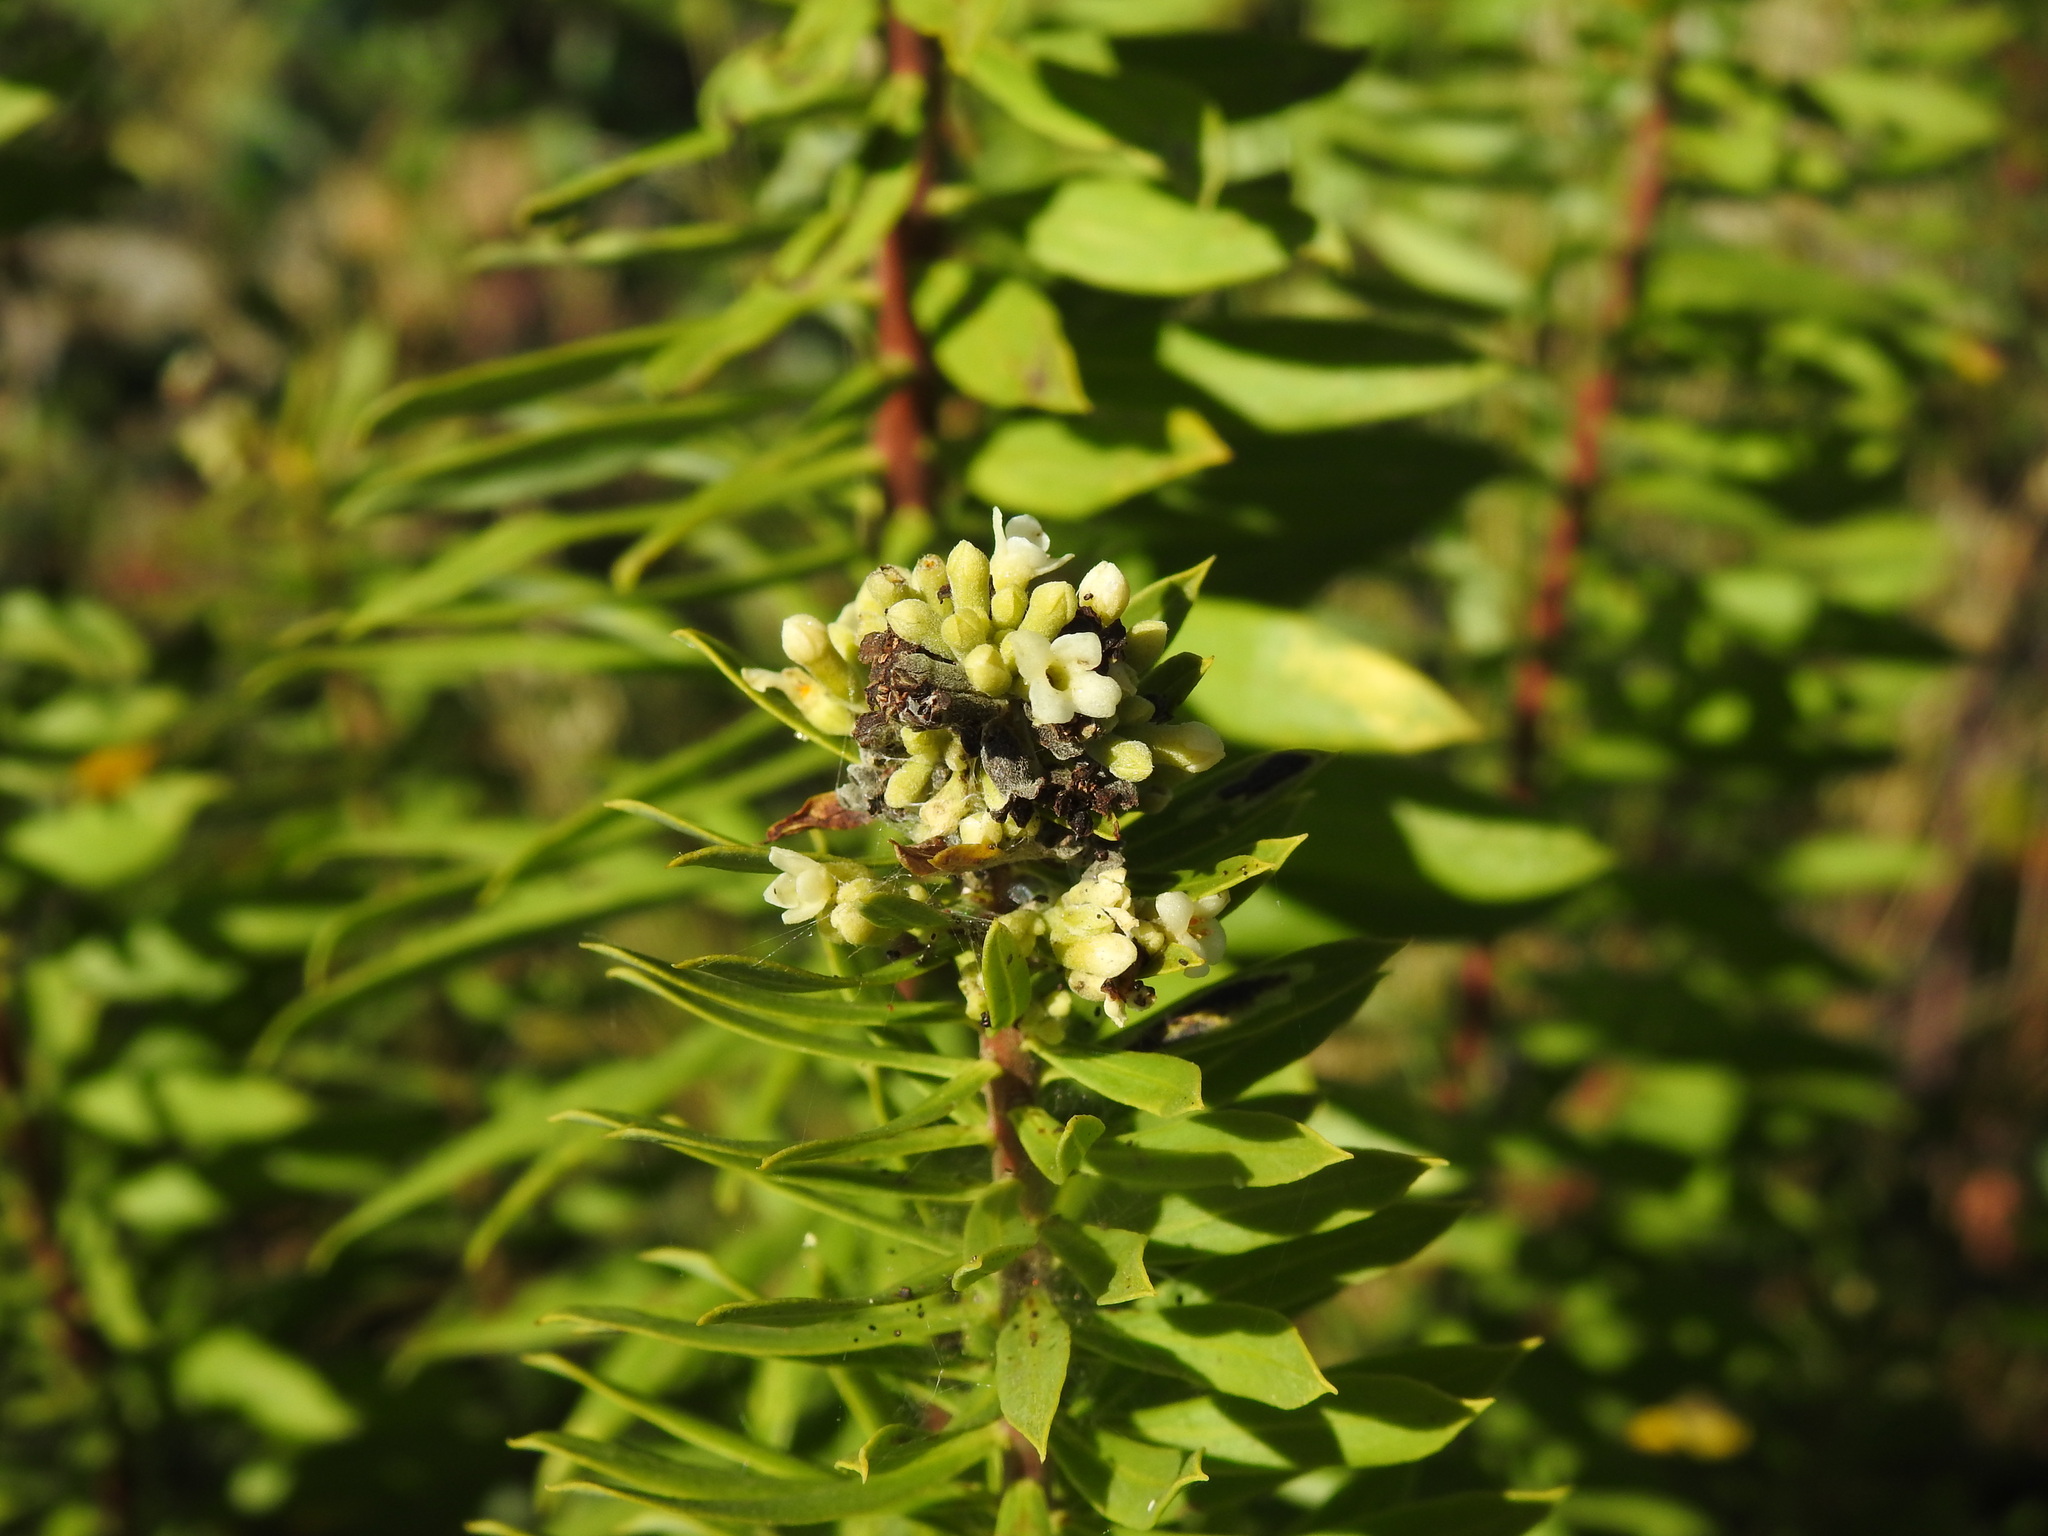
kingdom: Plantae
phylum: Tracheophyta
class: Magnoliopsida
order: Malvales
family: Thymelaeaceae
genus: Daphne
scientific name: Daphne gnidium
